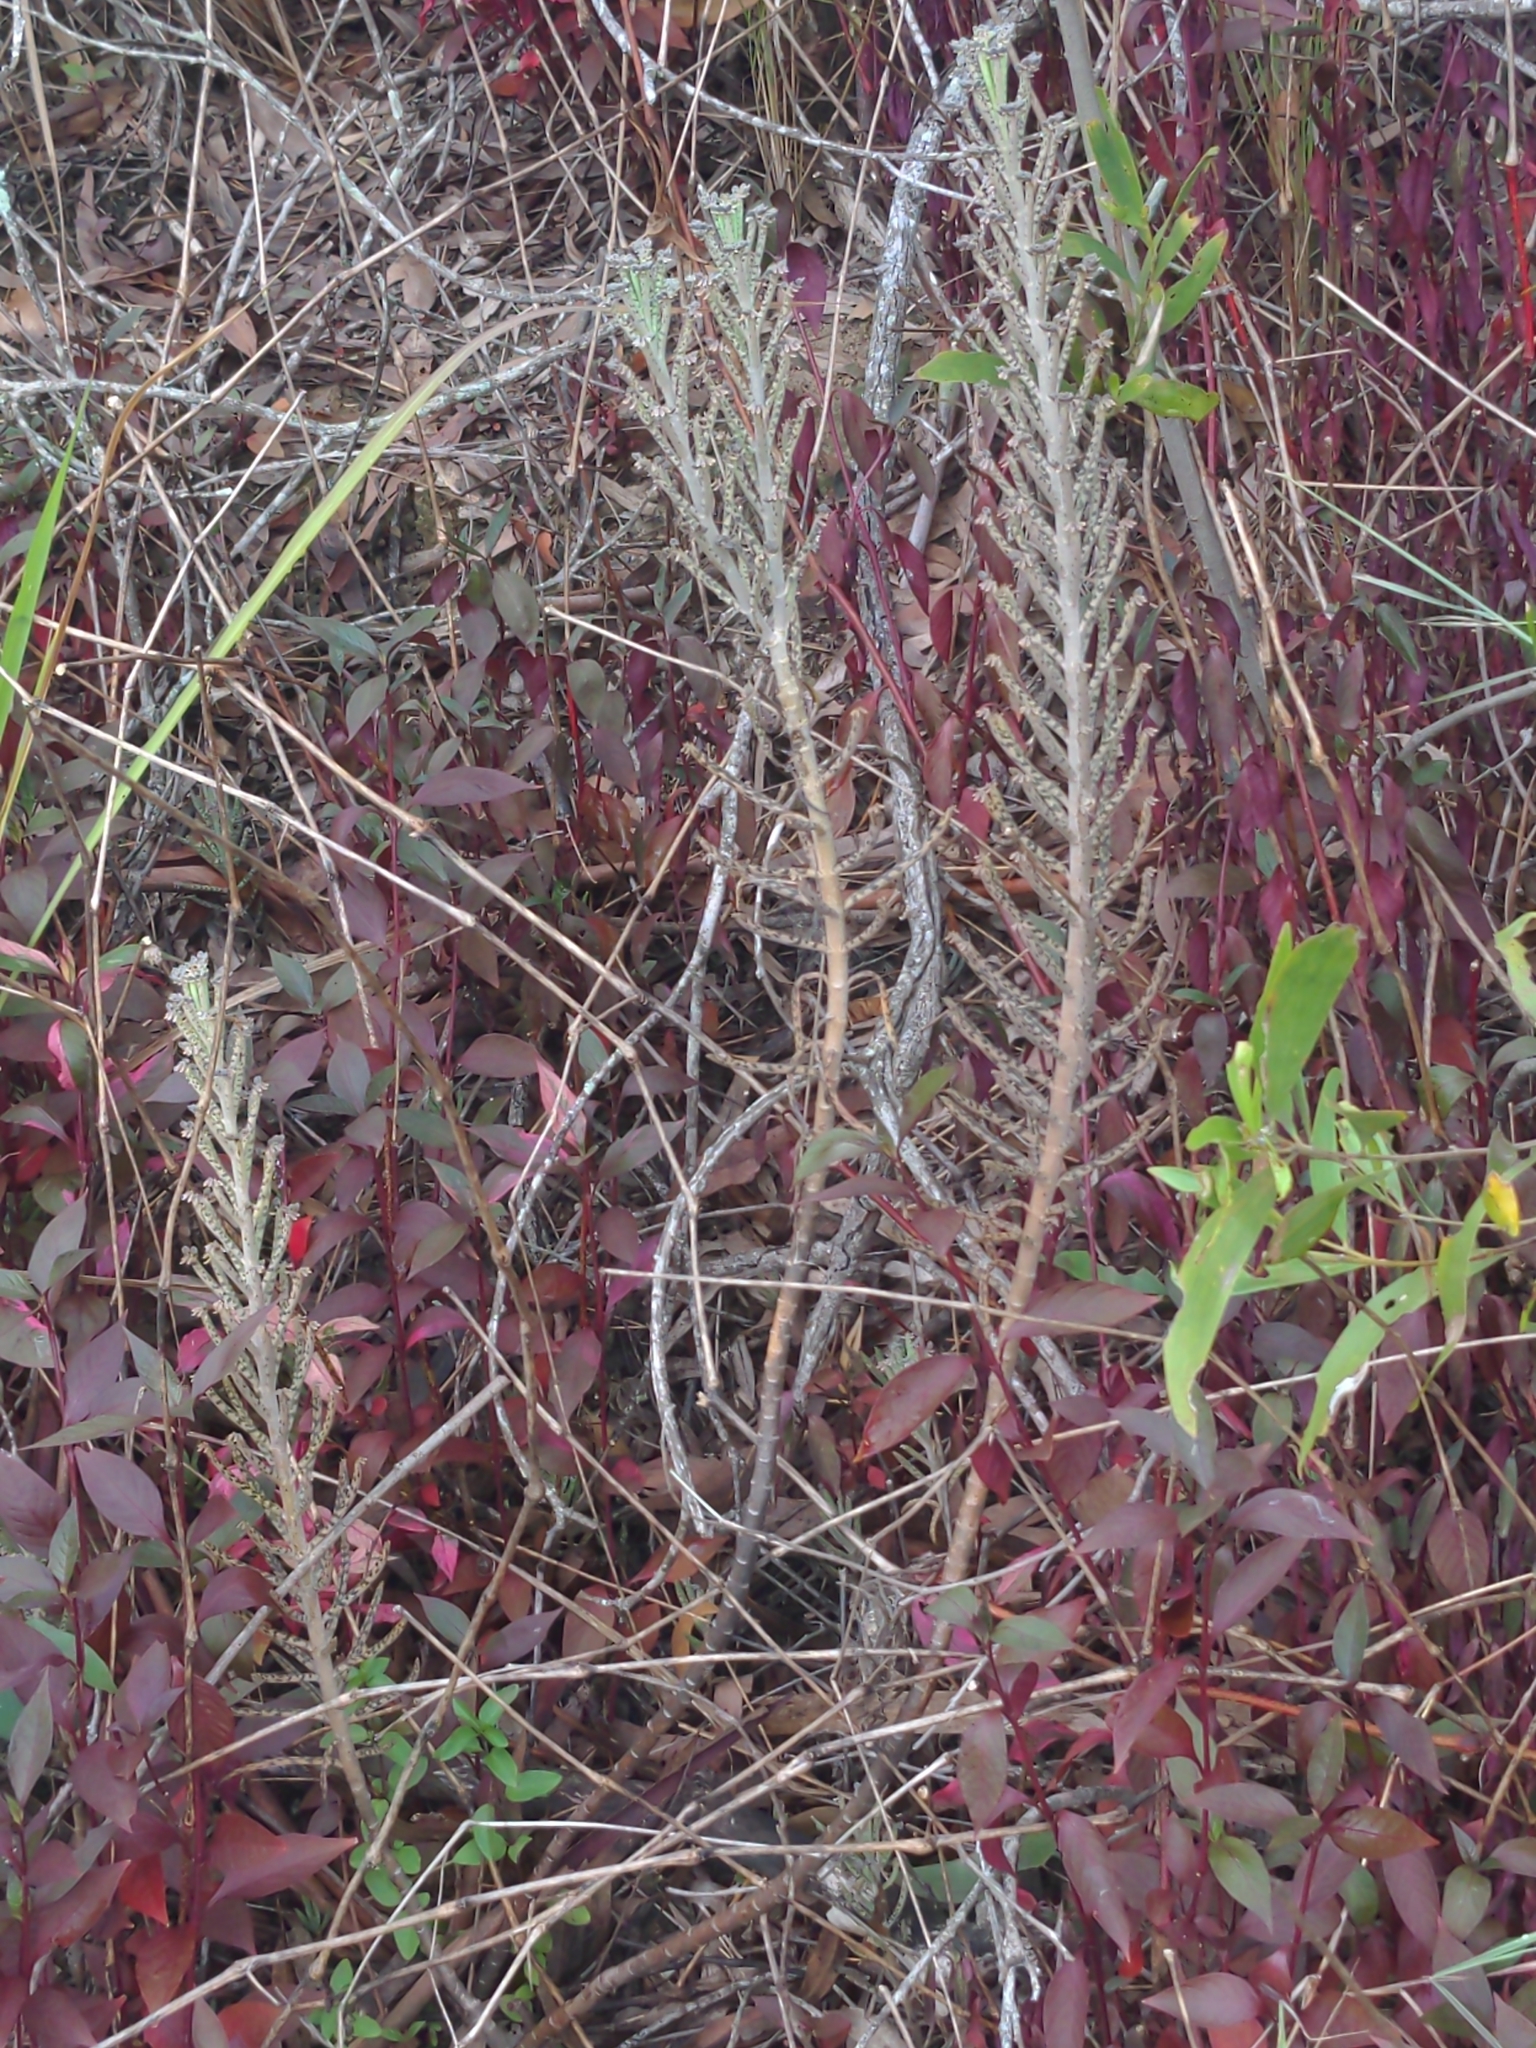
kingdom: Plantae
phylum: Tracheophyta
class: Magnoliopsida
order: Saxifragales
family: Crassulaceae
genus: Kalanchoe
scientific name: Kalanchoe delagoensis
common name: Chandelier plant
